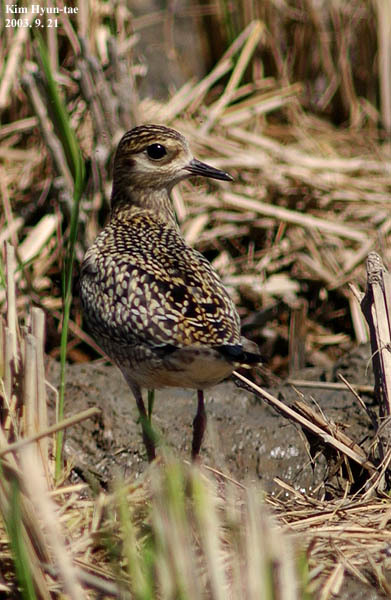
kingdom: Animalia
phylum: Chordata
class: Aves
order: Charadriiformes
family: Charadriidae
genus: Pluvialis
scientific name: Pluvialis fulva
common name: Pacific golden plover
